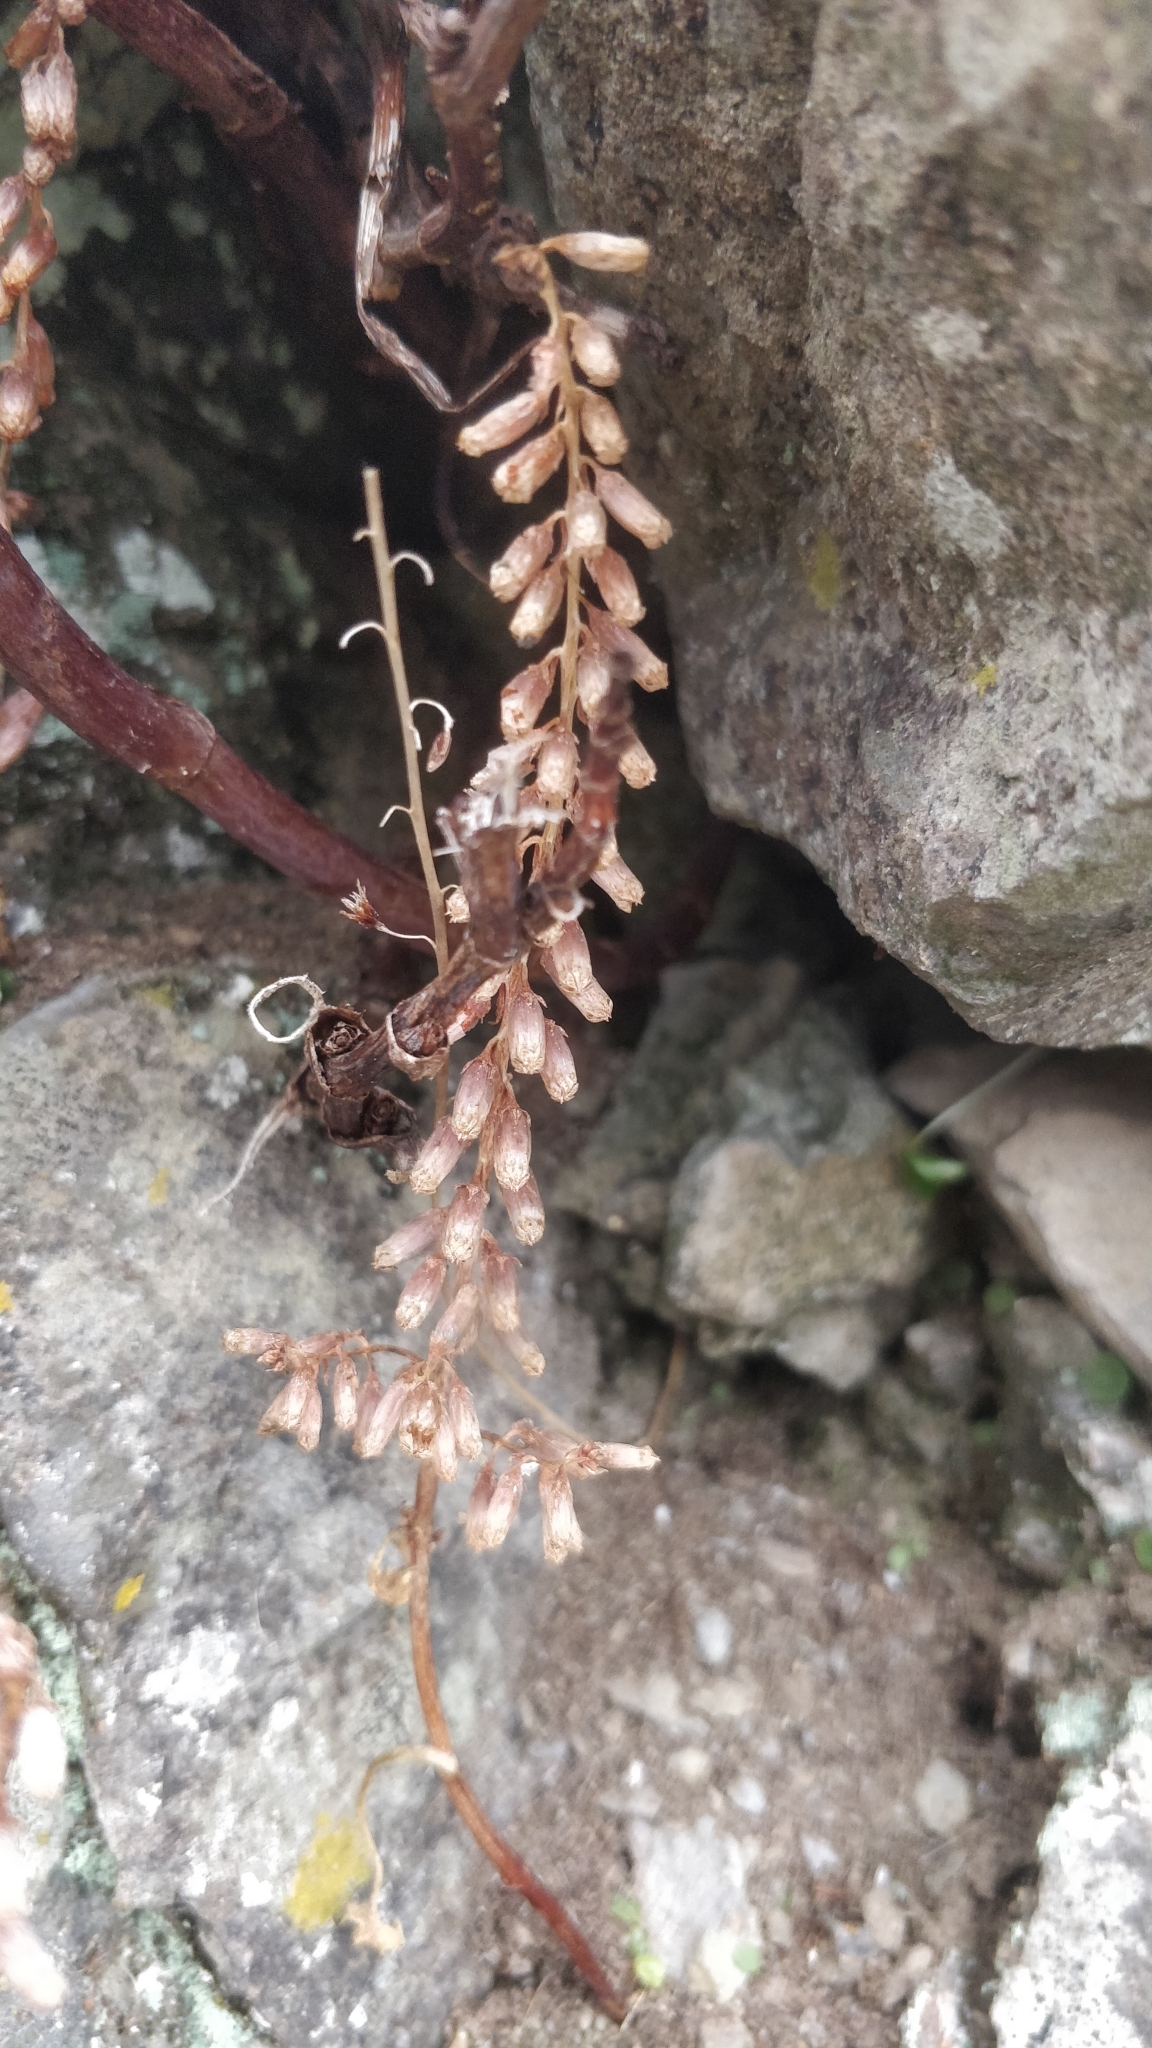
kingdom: Plantae
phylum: Tracheophyta
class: Magnoliopsida
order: Saxifragales
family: Crassulaceae
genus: Umbilicus
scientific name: Umbilicus rupestris
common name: Navelwort
